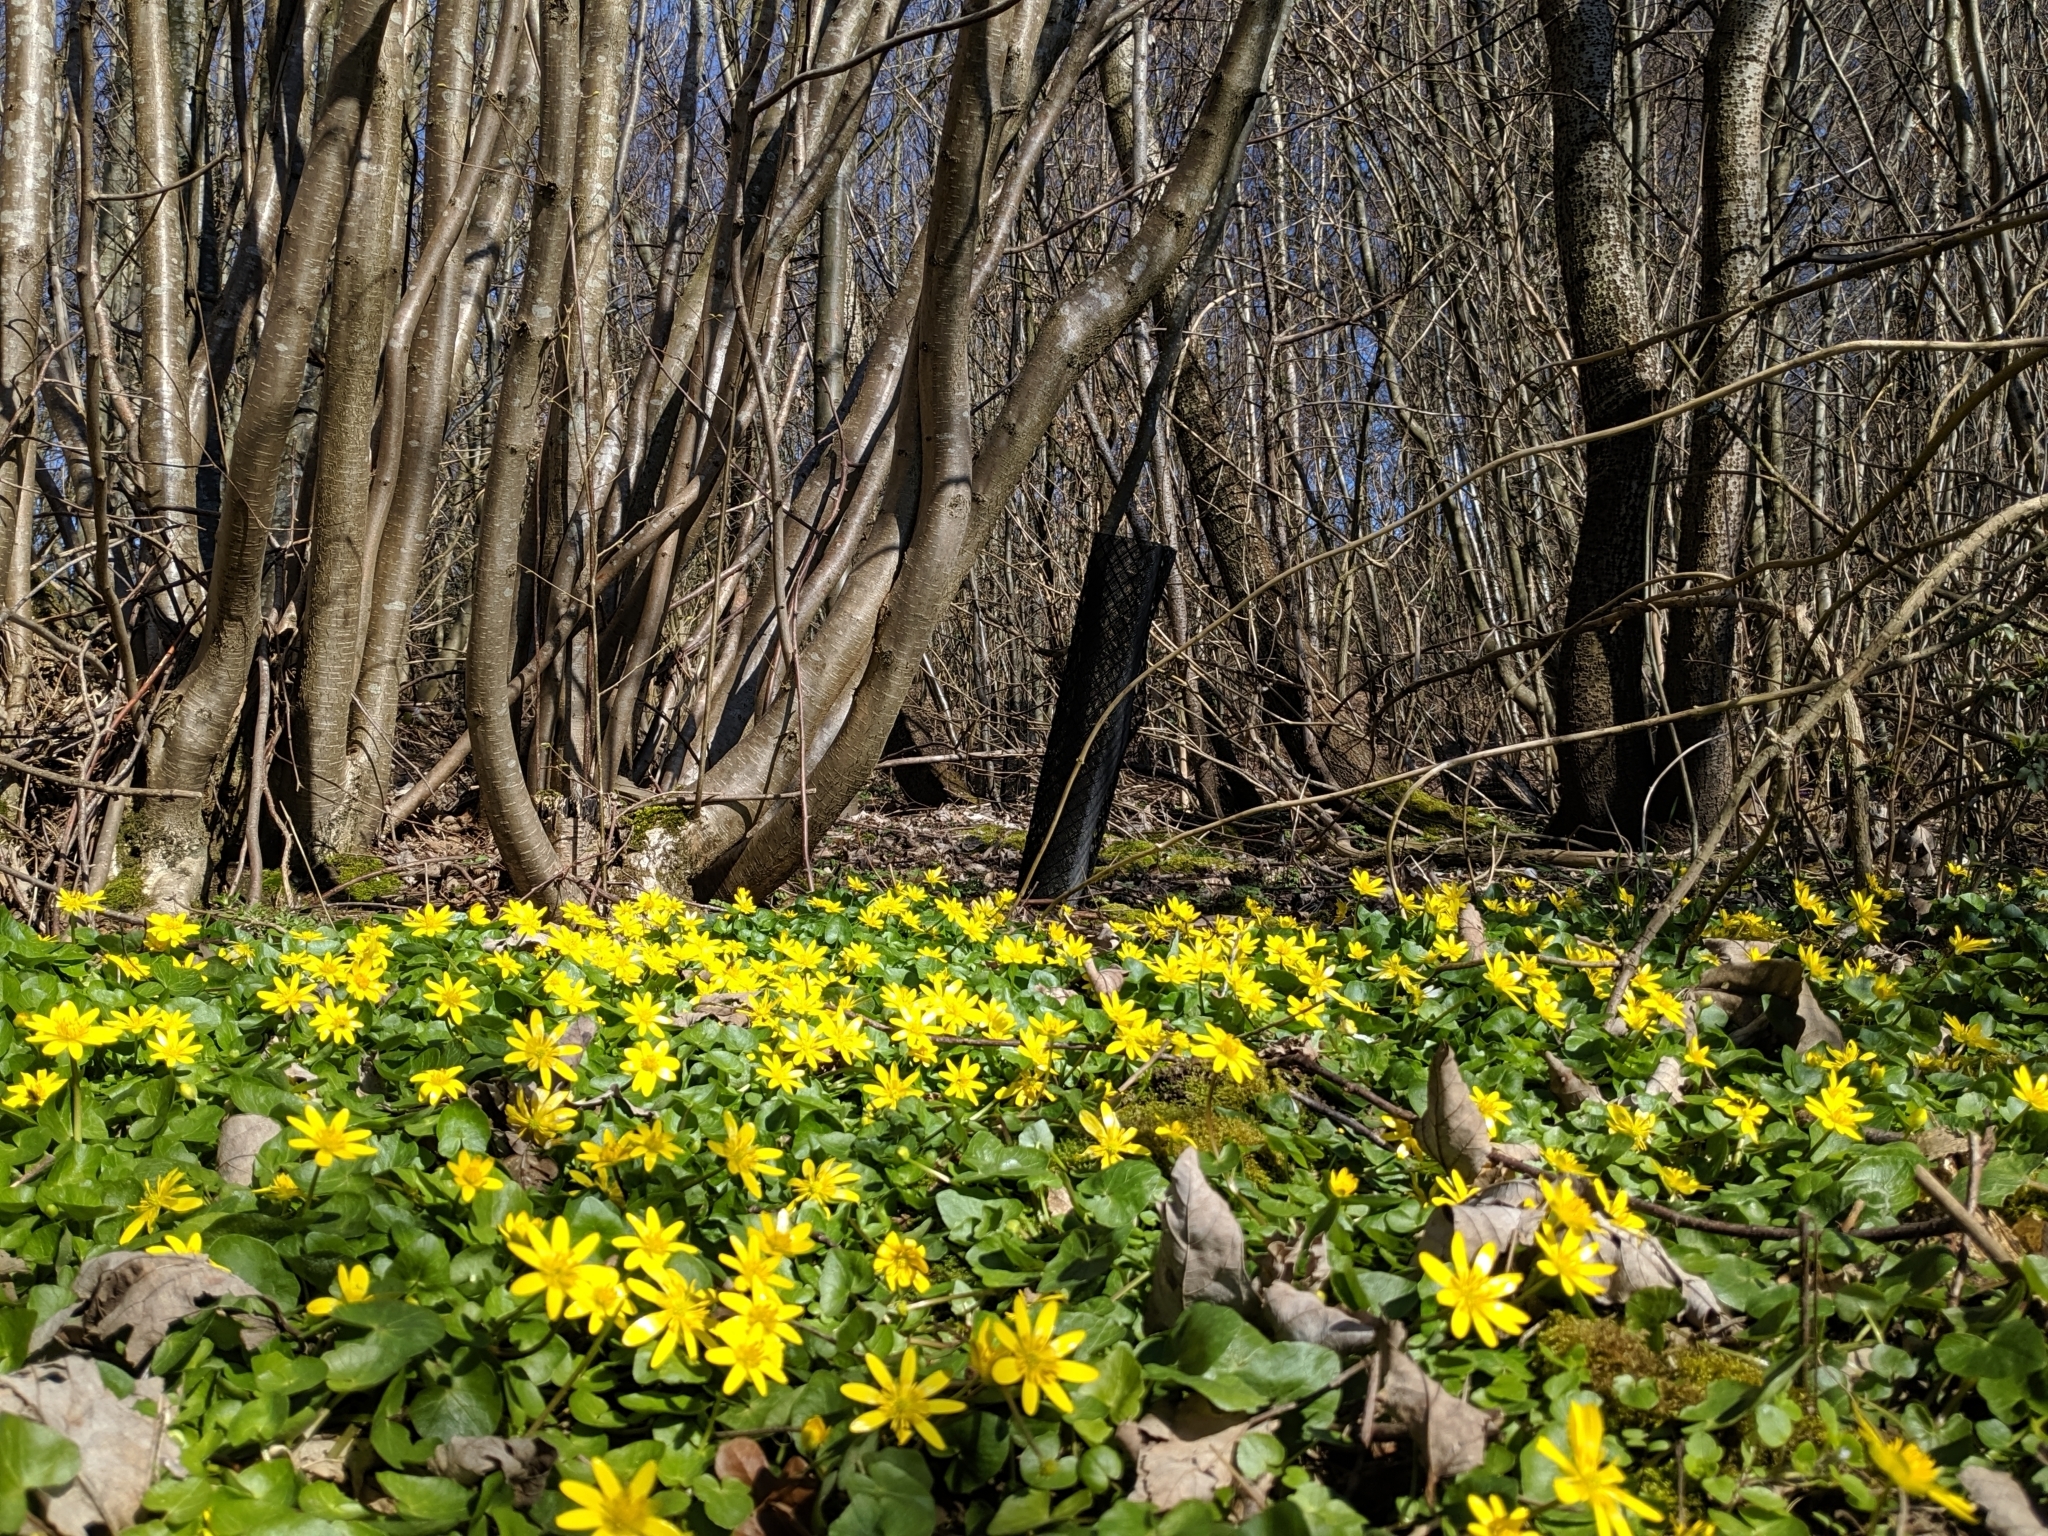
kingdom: Plantae
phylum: Tracheophyta
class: Magnoliopsida
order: Ranunculales
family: Ranunculaceae
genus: Ficaria
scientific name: Ficaria verna
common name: Lesser celandine
